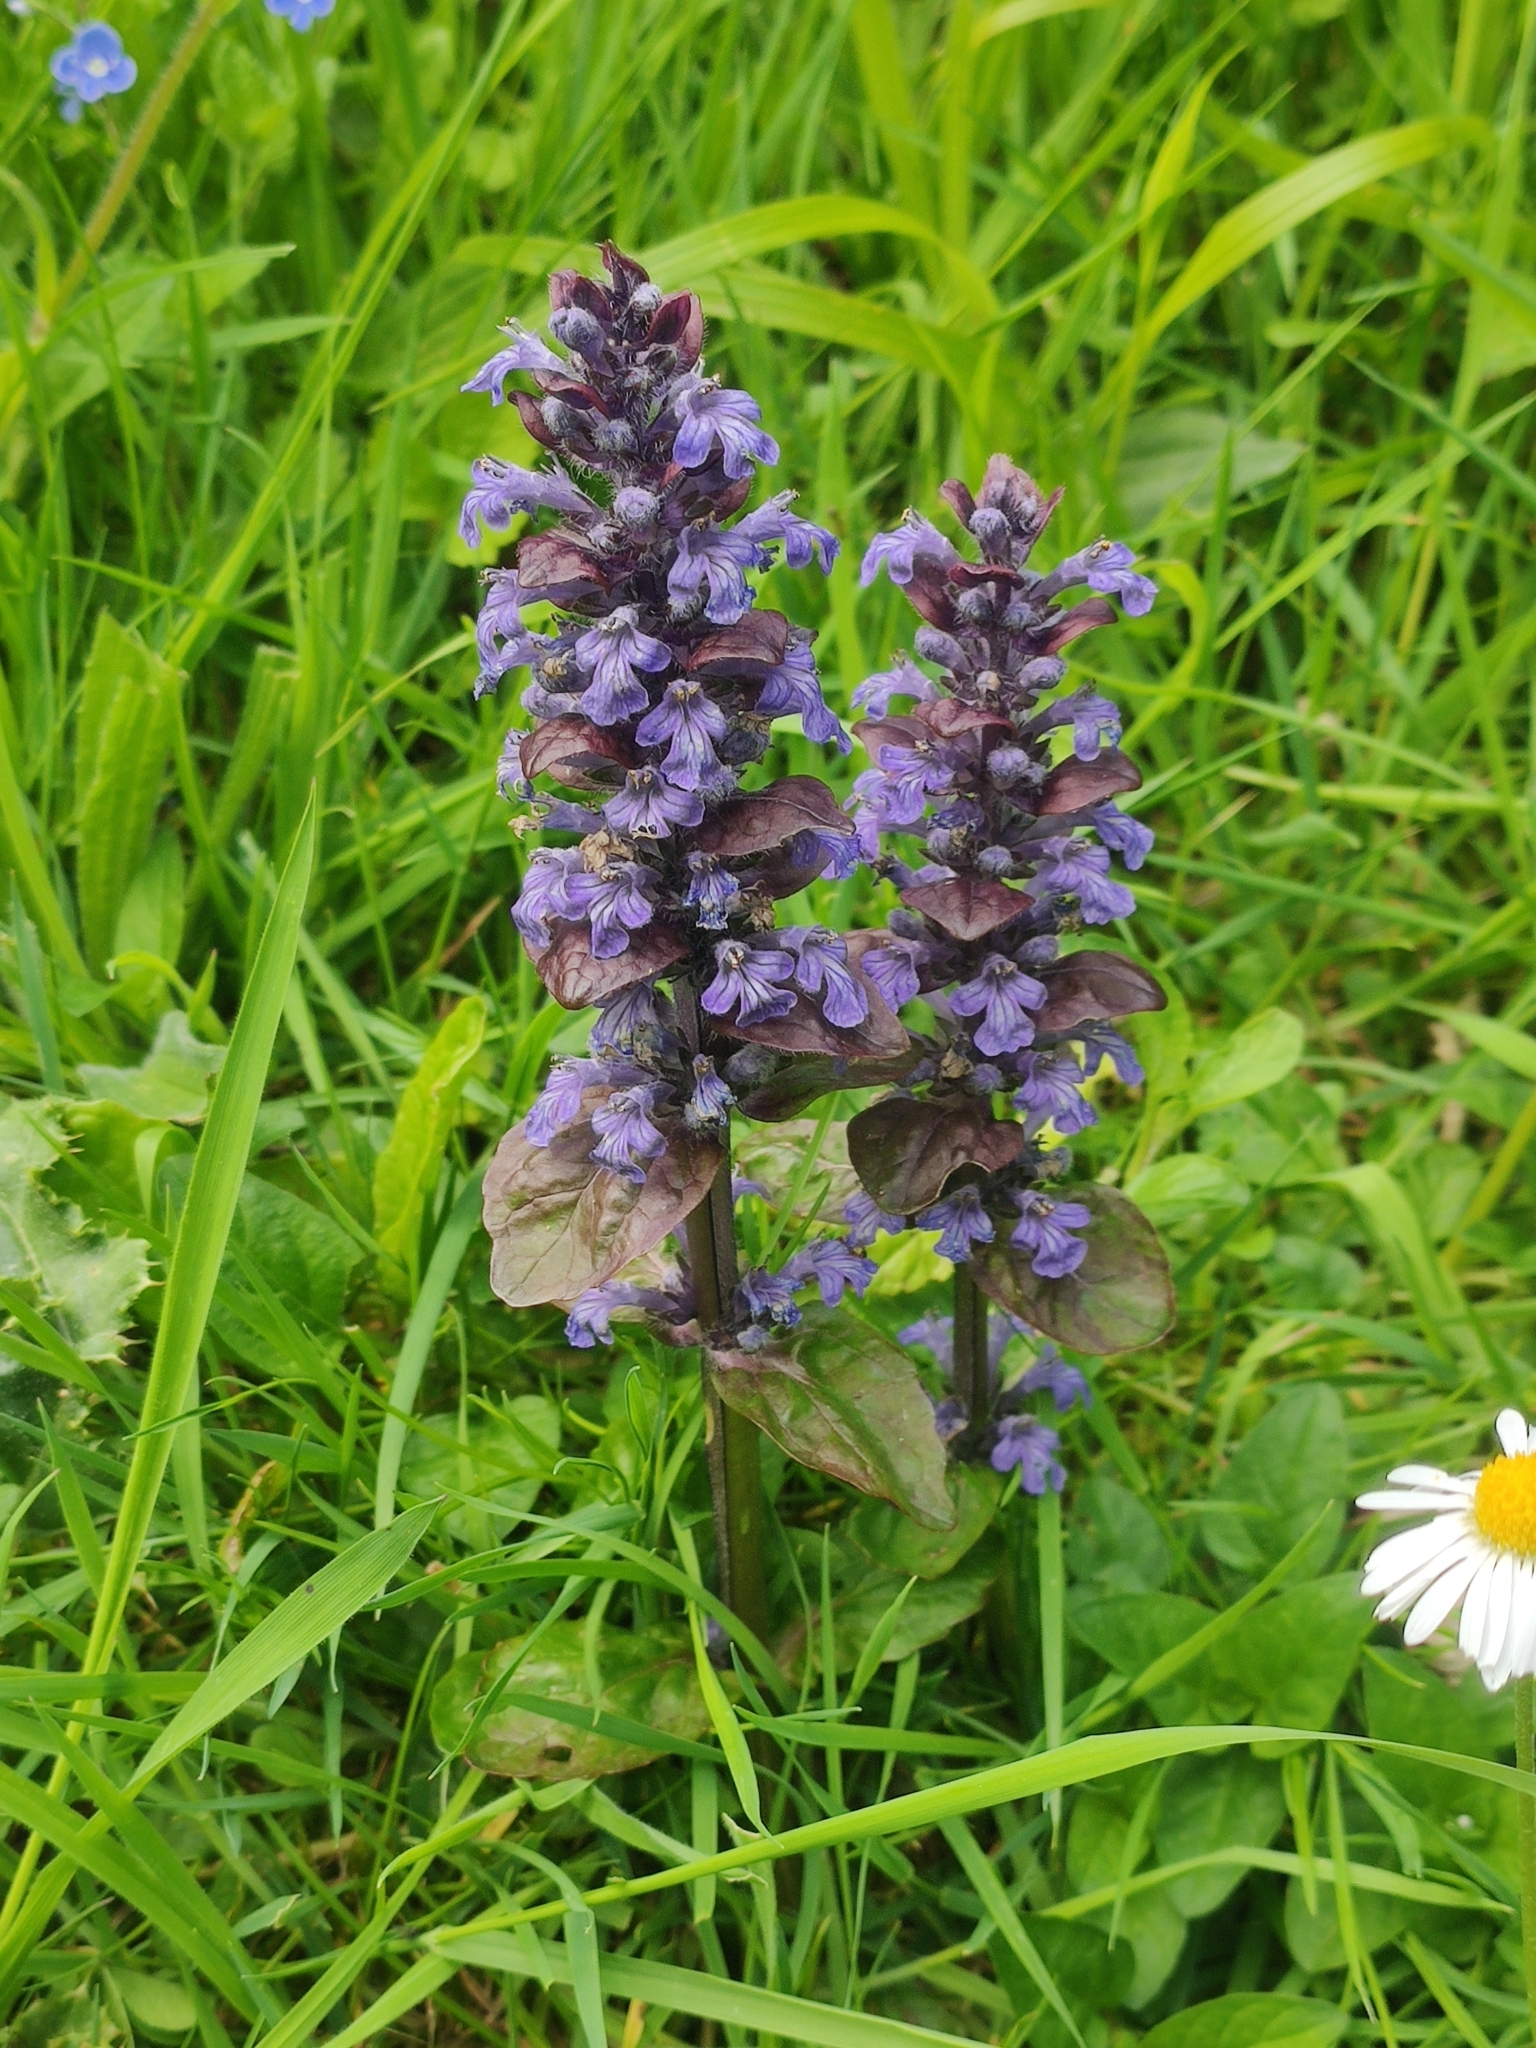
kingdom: Plantae
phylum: Tracheophyta
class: Magnoliopsida
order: Lamiales
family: Lamiaceae
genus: Ajuga
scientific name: Ajuga reptans
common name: Bugle
